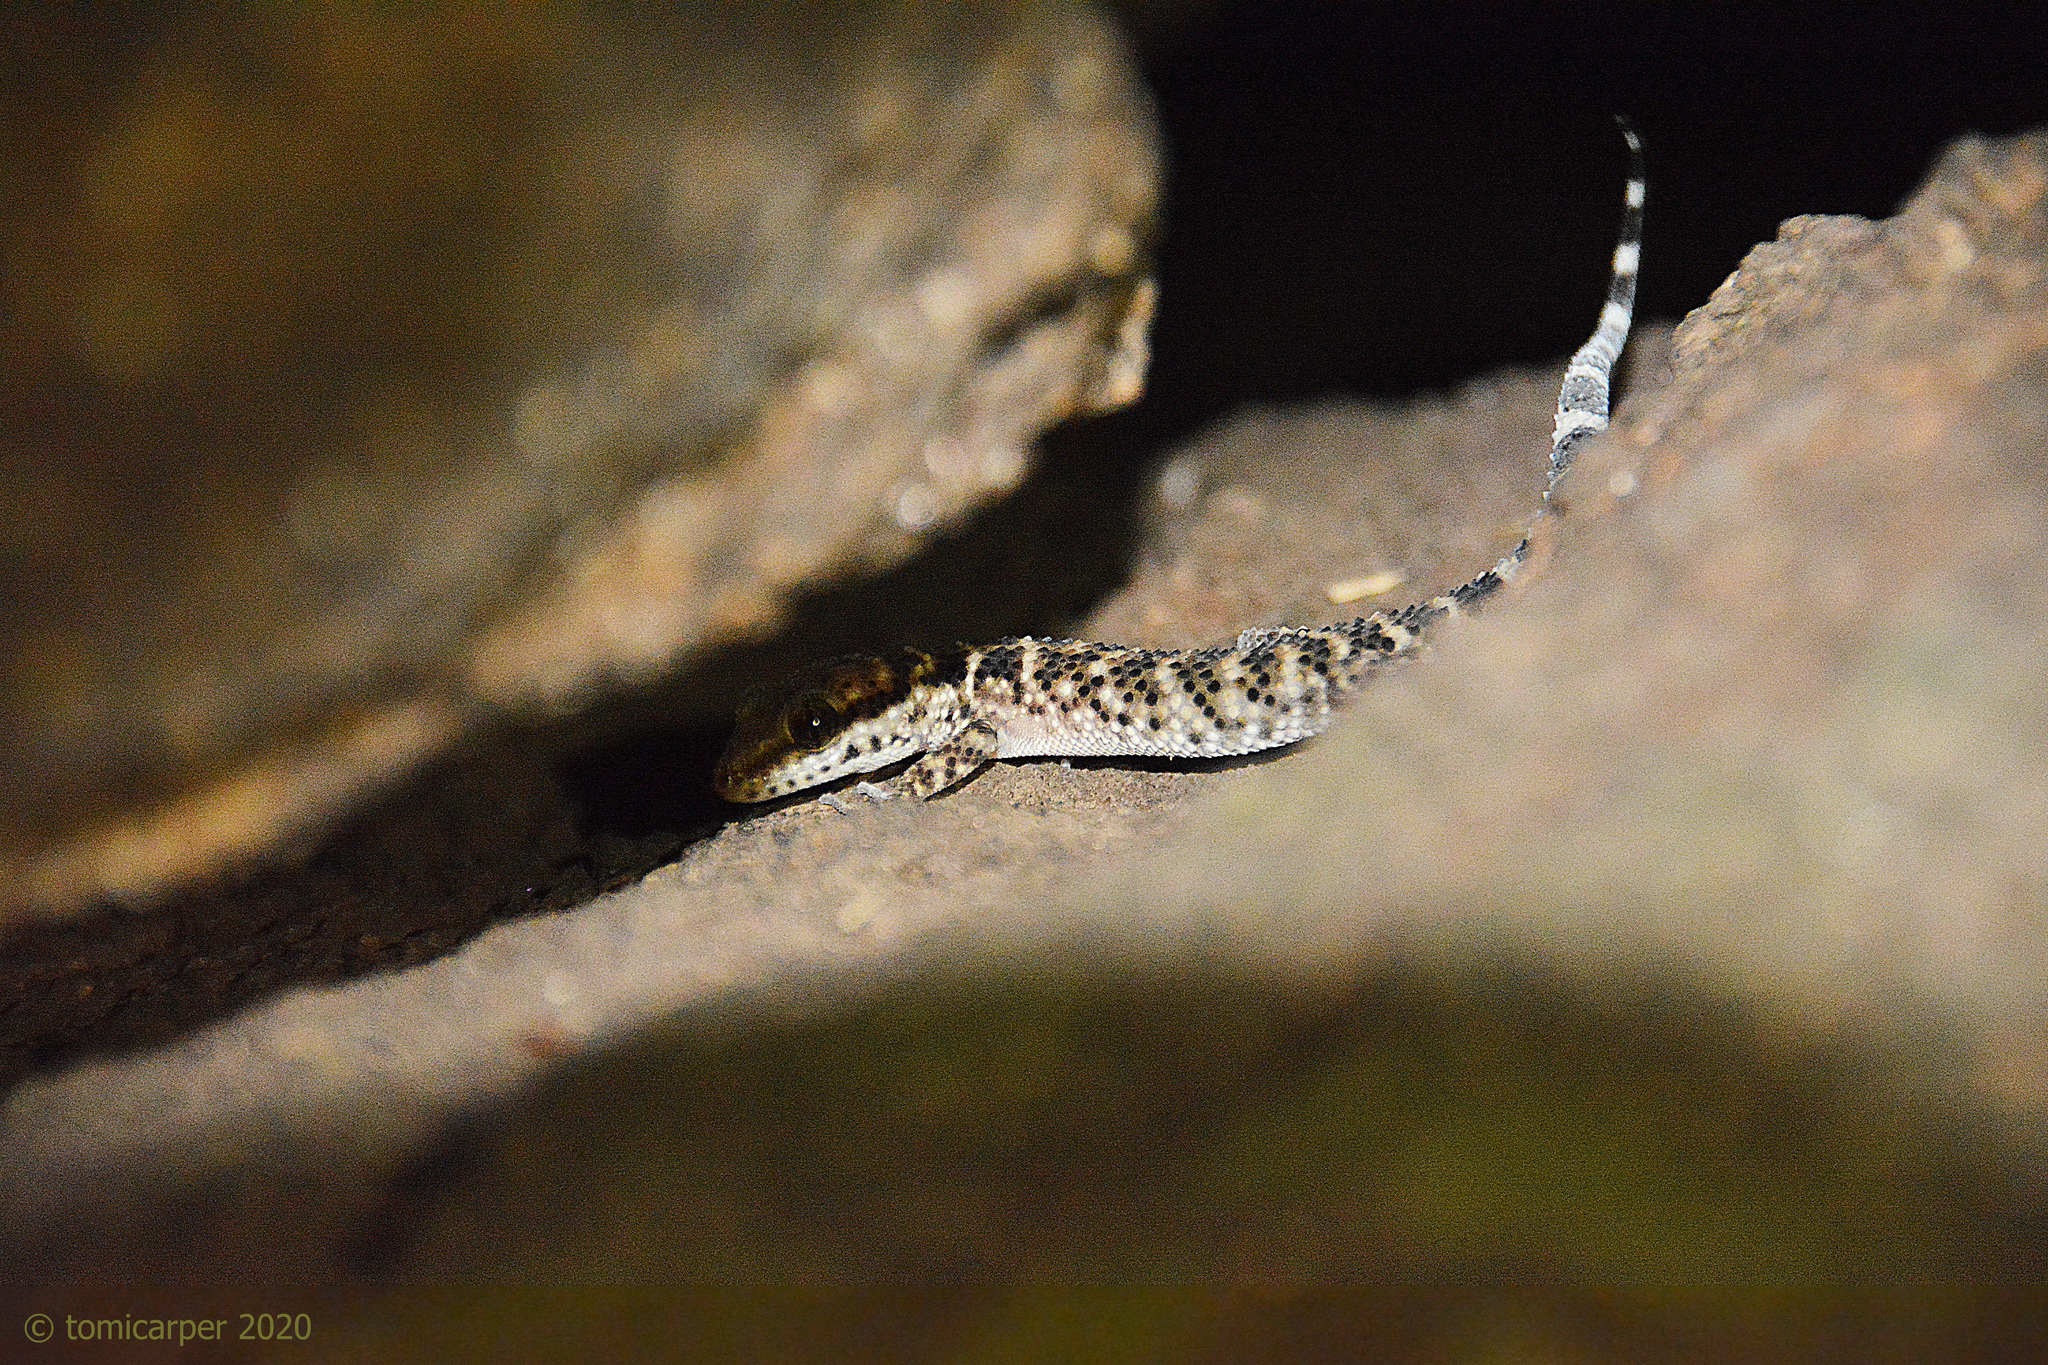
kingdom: Animalia
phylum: Chordata
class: Squamata
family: Phyllodactylidae
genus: Homonota
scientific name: Homonota horrida
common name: South american marked gecko
